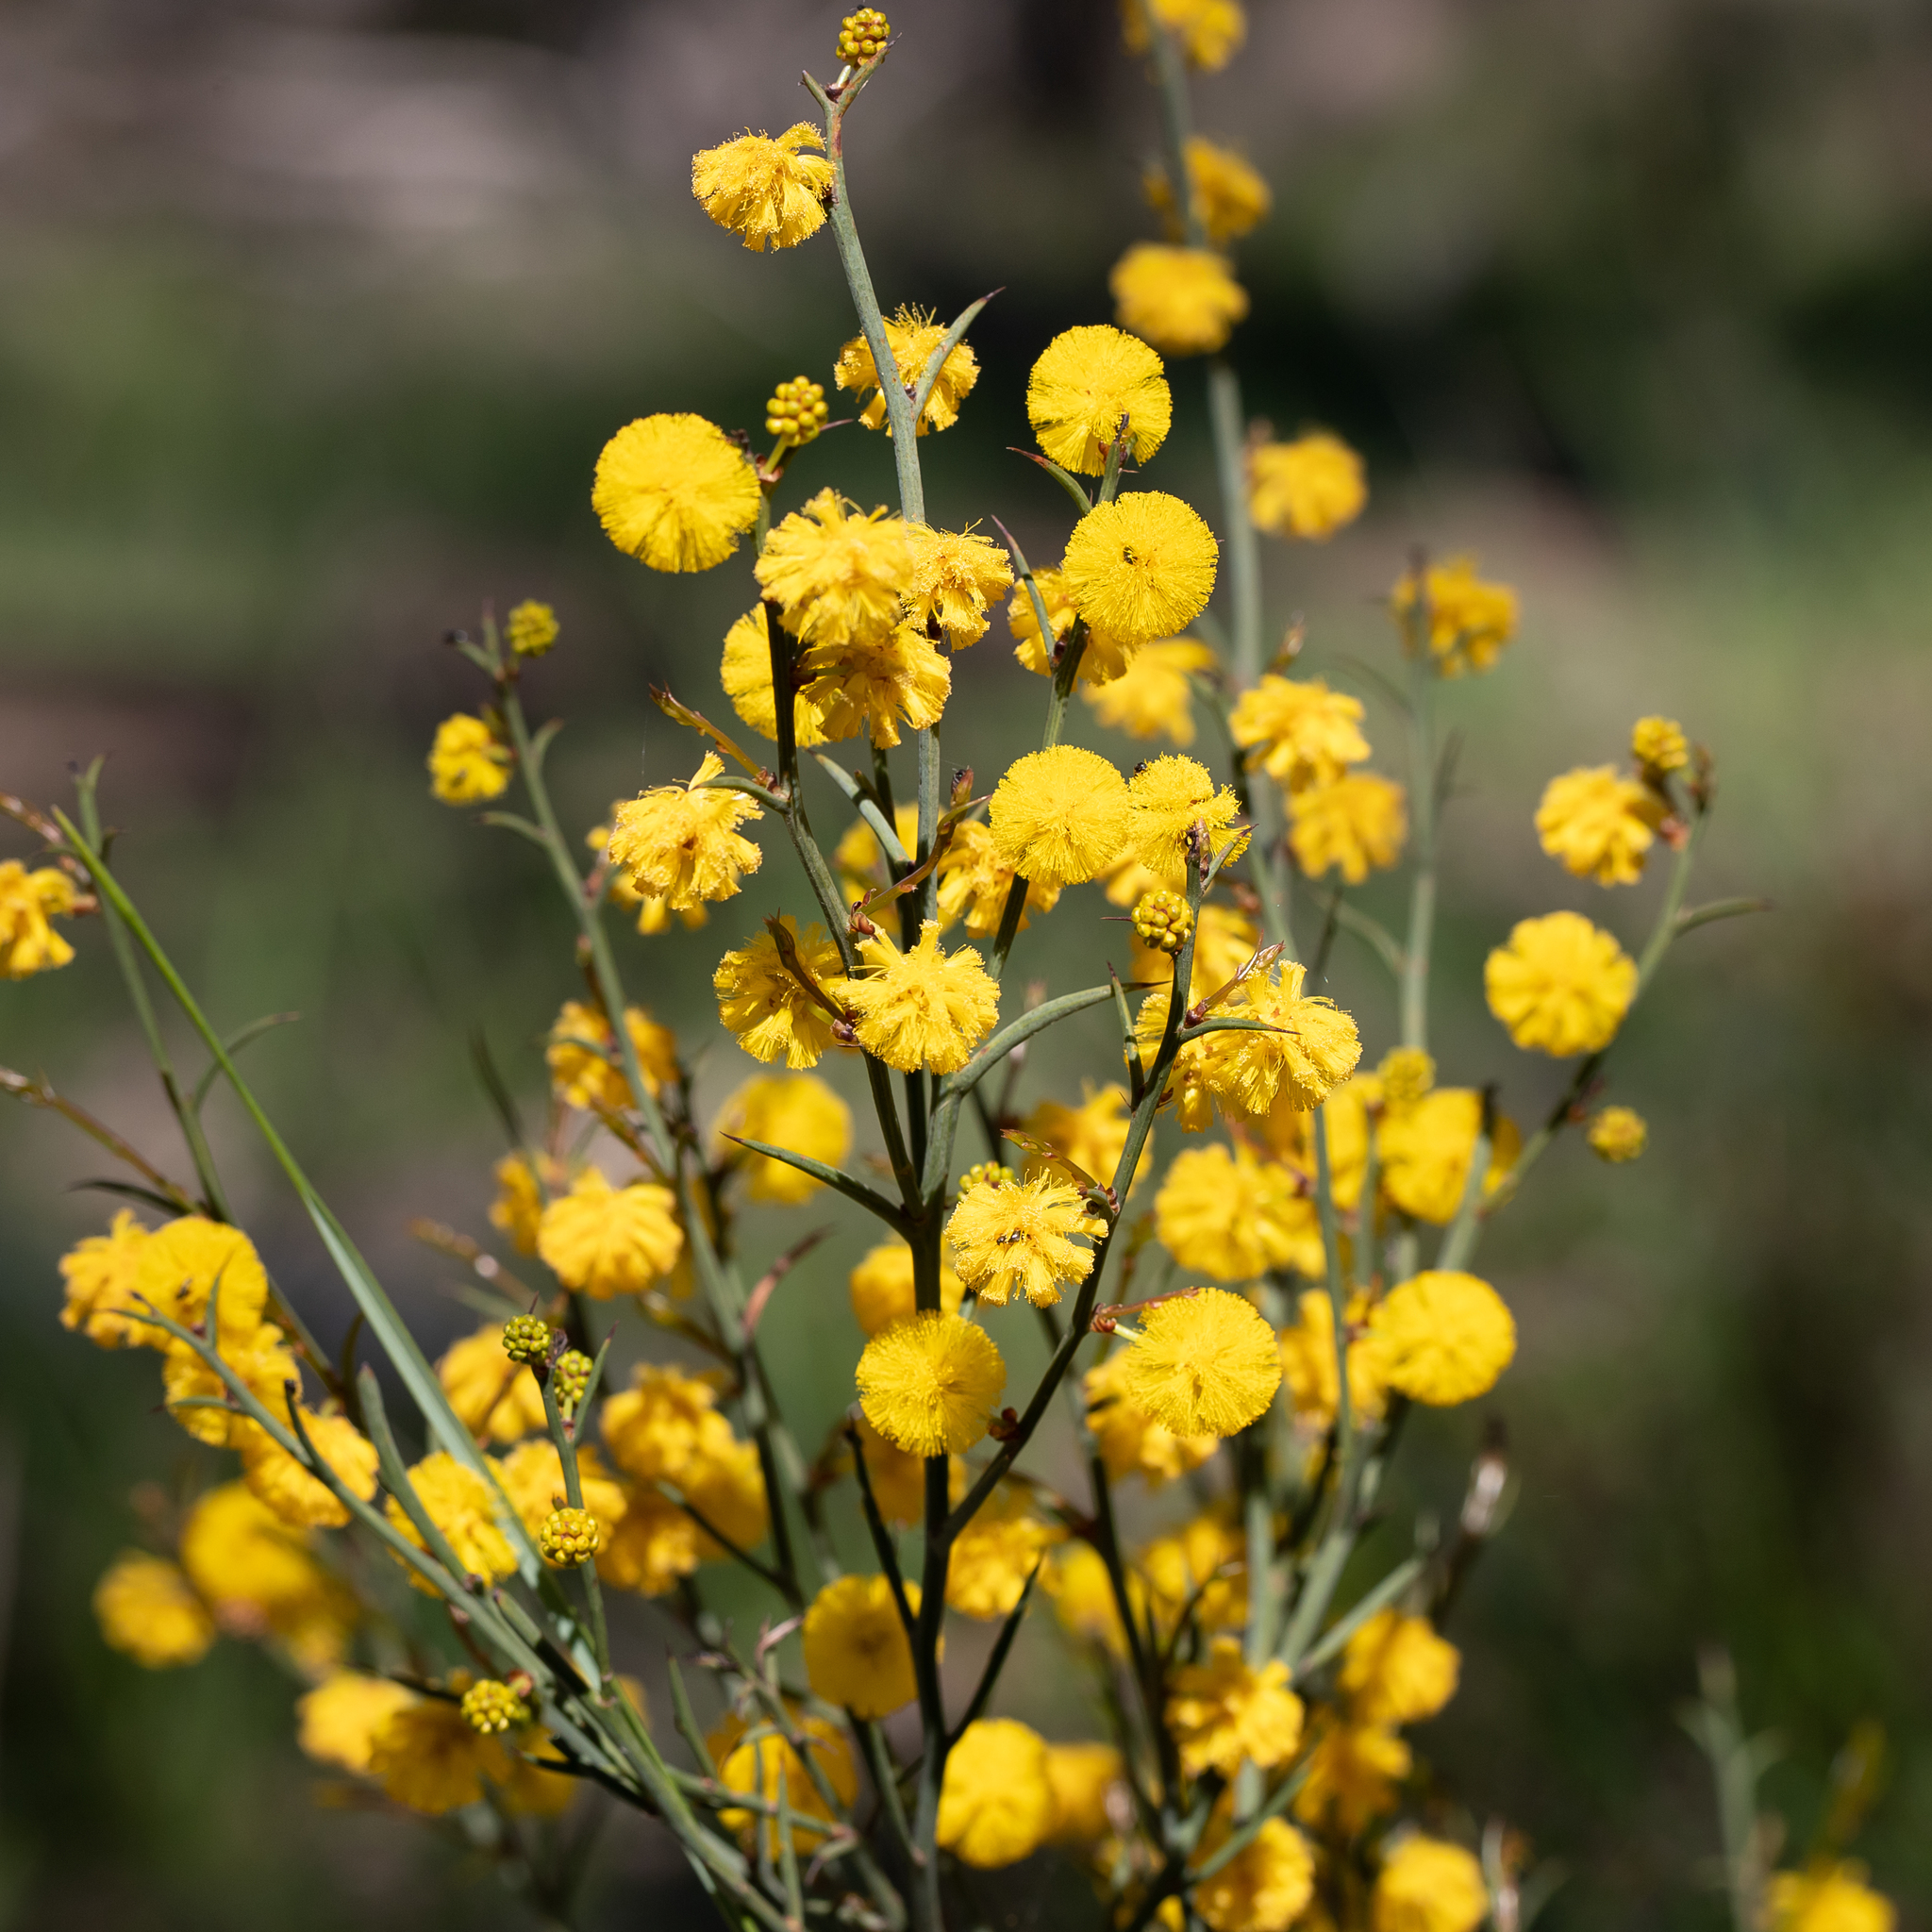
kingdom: Plantae
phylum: Tracheophyta
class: Magnoliopsida
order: Fabales
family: Fabaceae
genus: Acacia
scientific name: Acacia continua
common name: Thorn wattle
